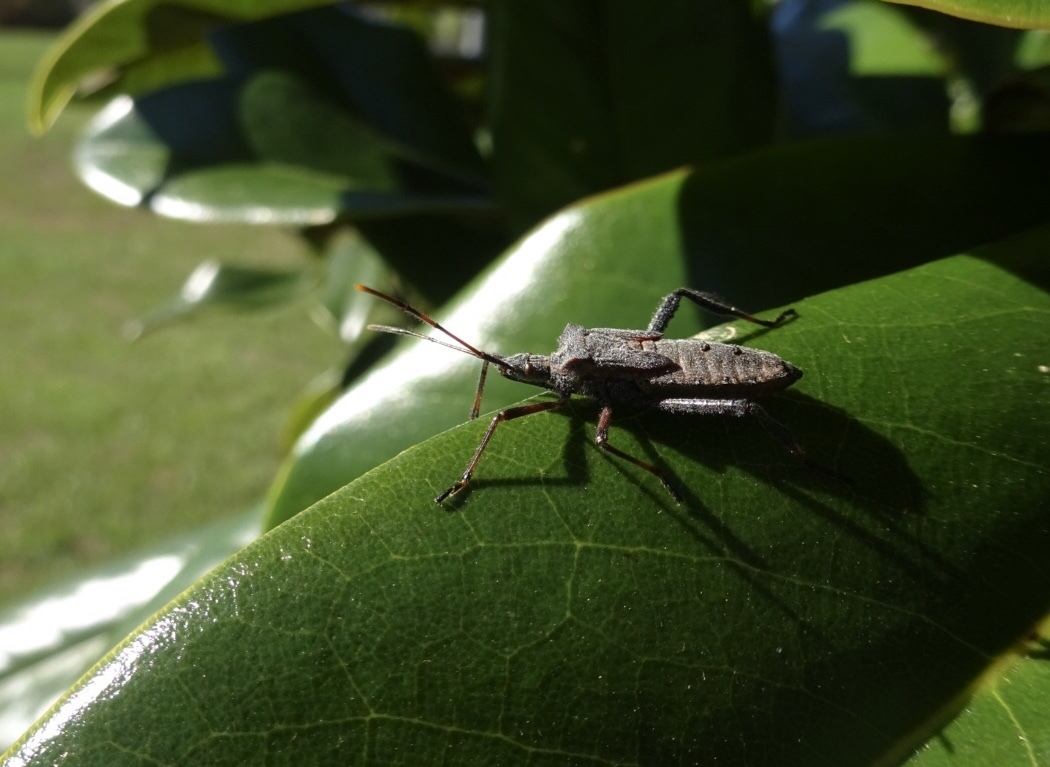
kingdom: Animalia
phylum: Arthropoda
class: Insecta
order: Hemiptera
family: Coreidae
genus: Leptoglossus
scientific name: Leptoglossus fulvicornis
